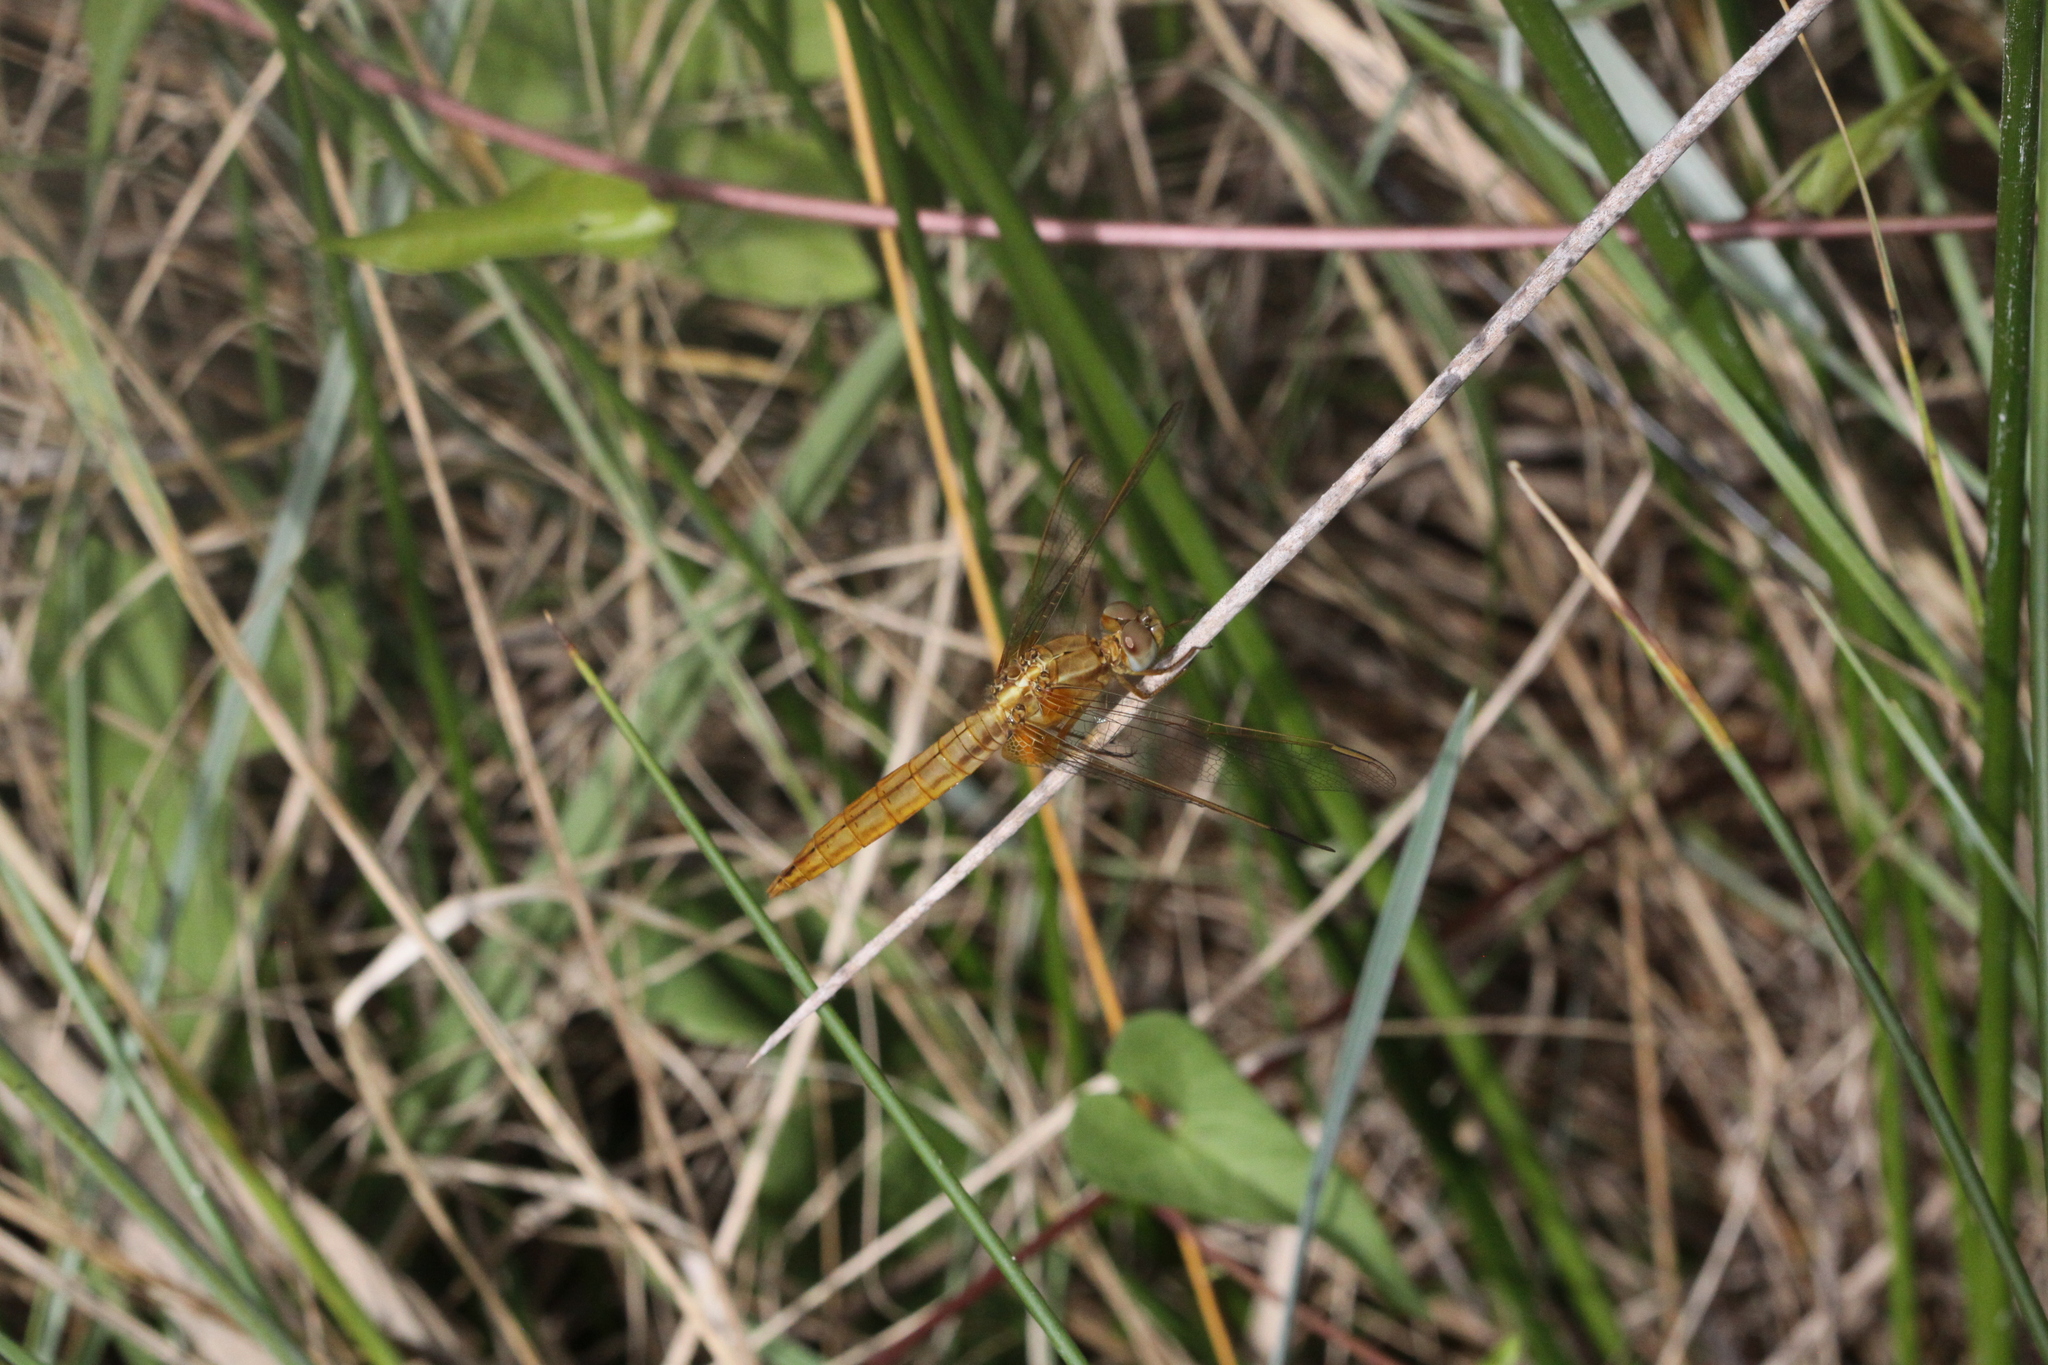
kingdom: Animalia
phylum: Arthropoda
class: Insecta
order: Odonata
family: Libellulidae
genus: Crocothemis
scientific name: Crocothemis erythraea
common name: Scarlet dragonfly
